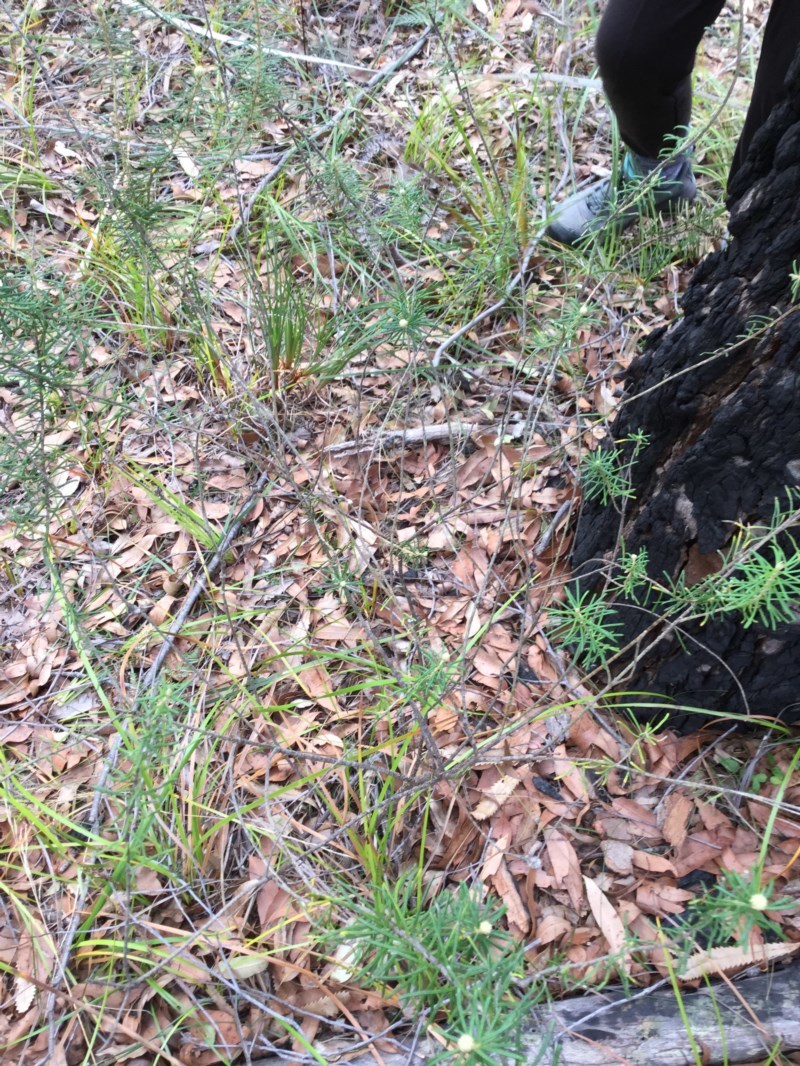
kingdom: Plantae
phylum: Tracheophyta
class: Magnoliopsida
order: Apiales
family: Araliaceae
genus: Astrotricha
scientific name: Astrotricha
